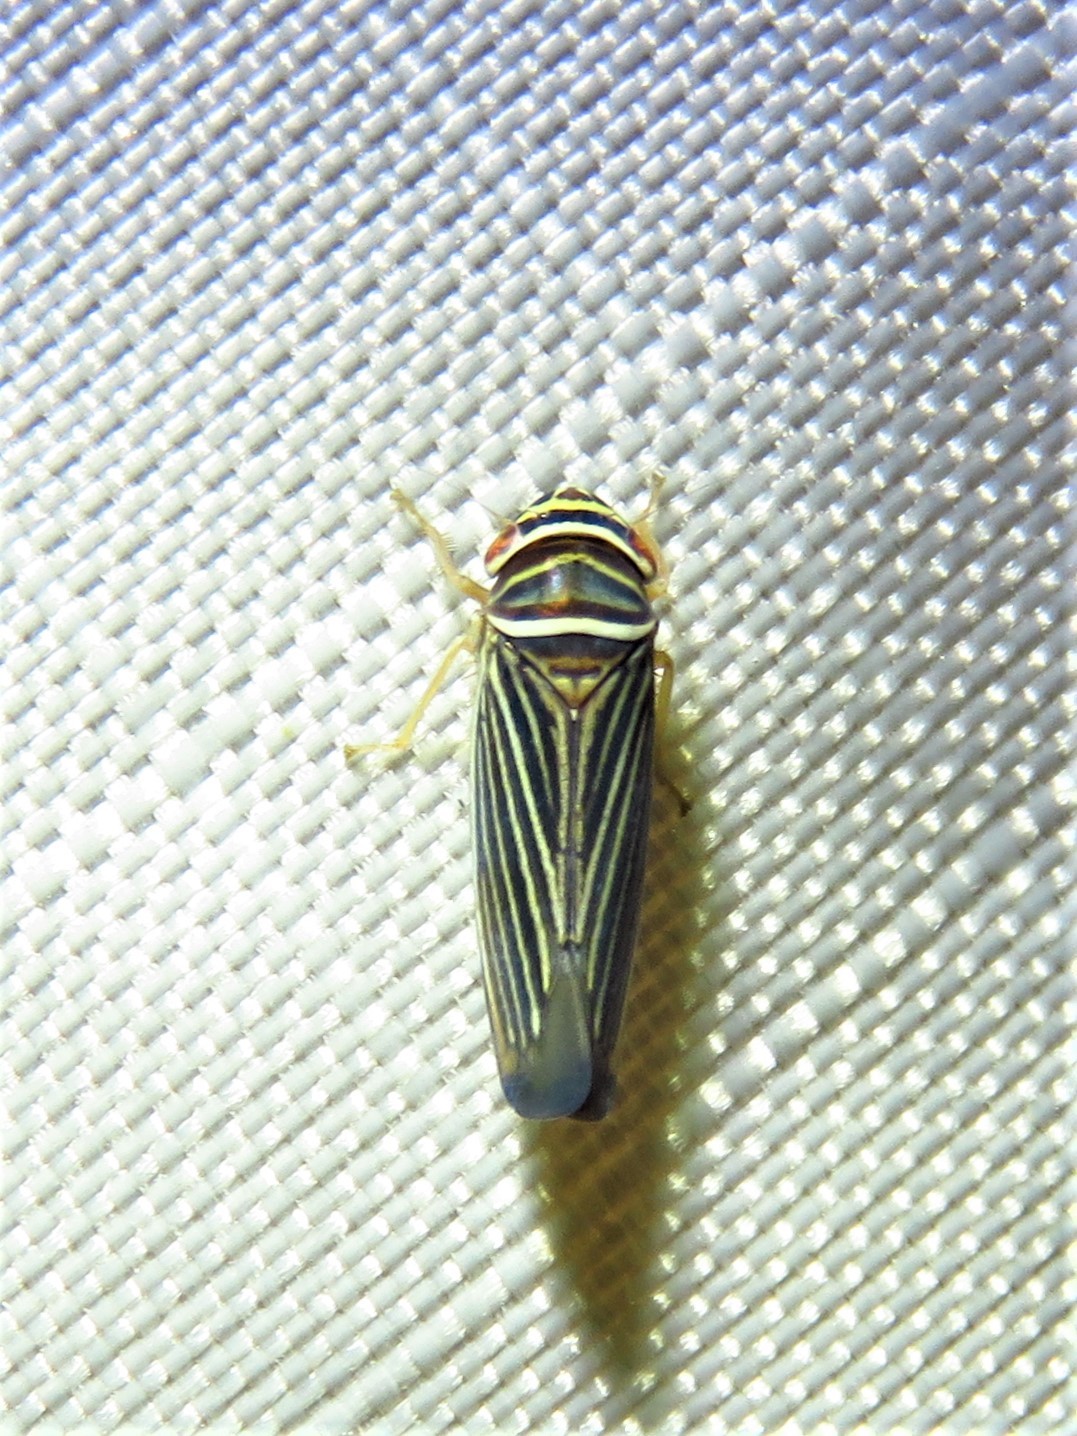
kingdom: Animalia
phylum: Arthropoda
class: Insecta
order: Hemiptera
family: Cicadellidae
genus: Tylozygus
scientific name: Tylozygus bifidus
